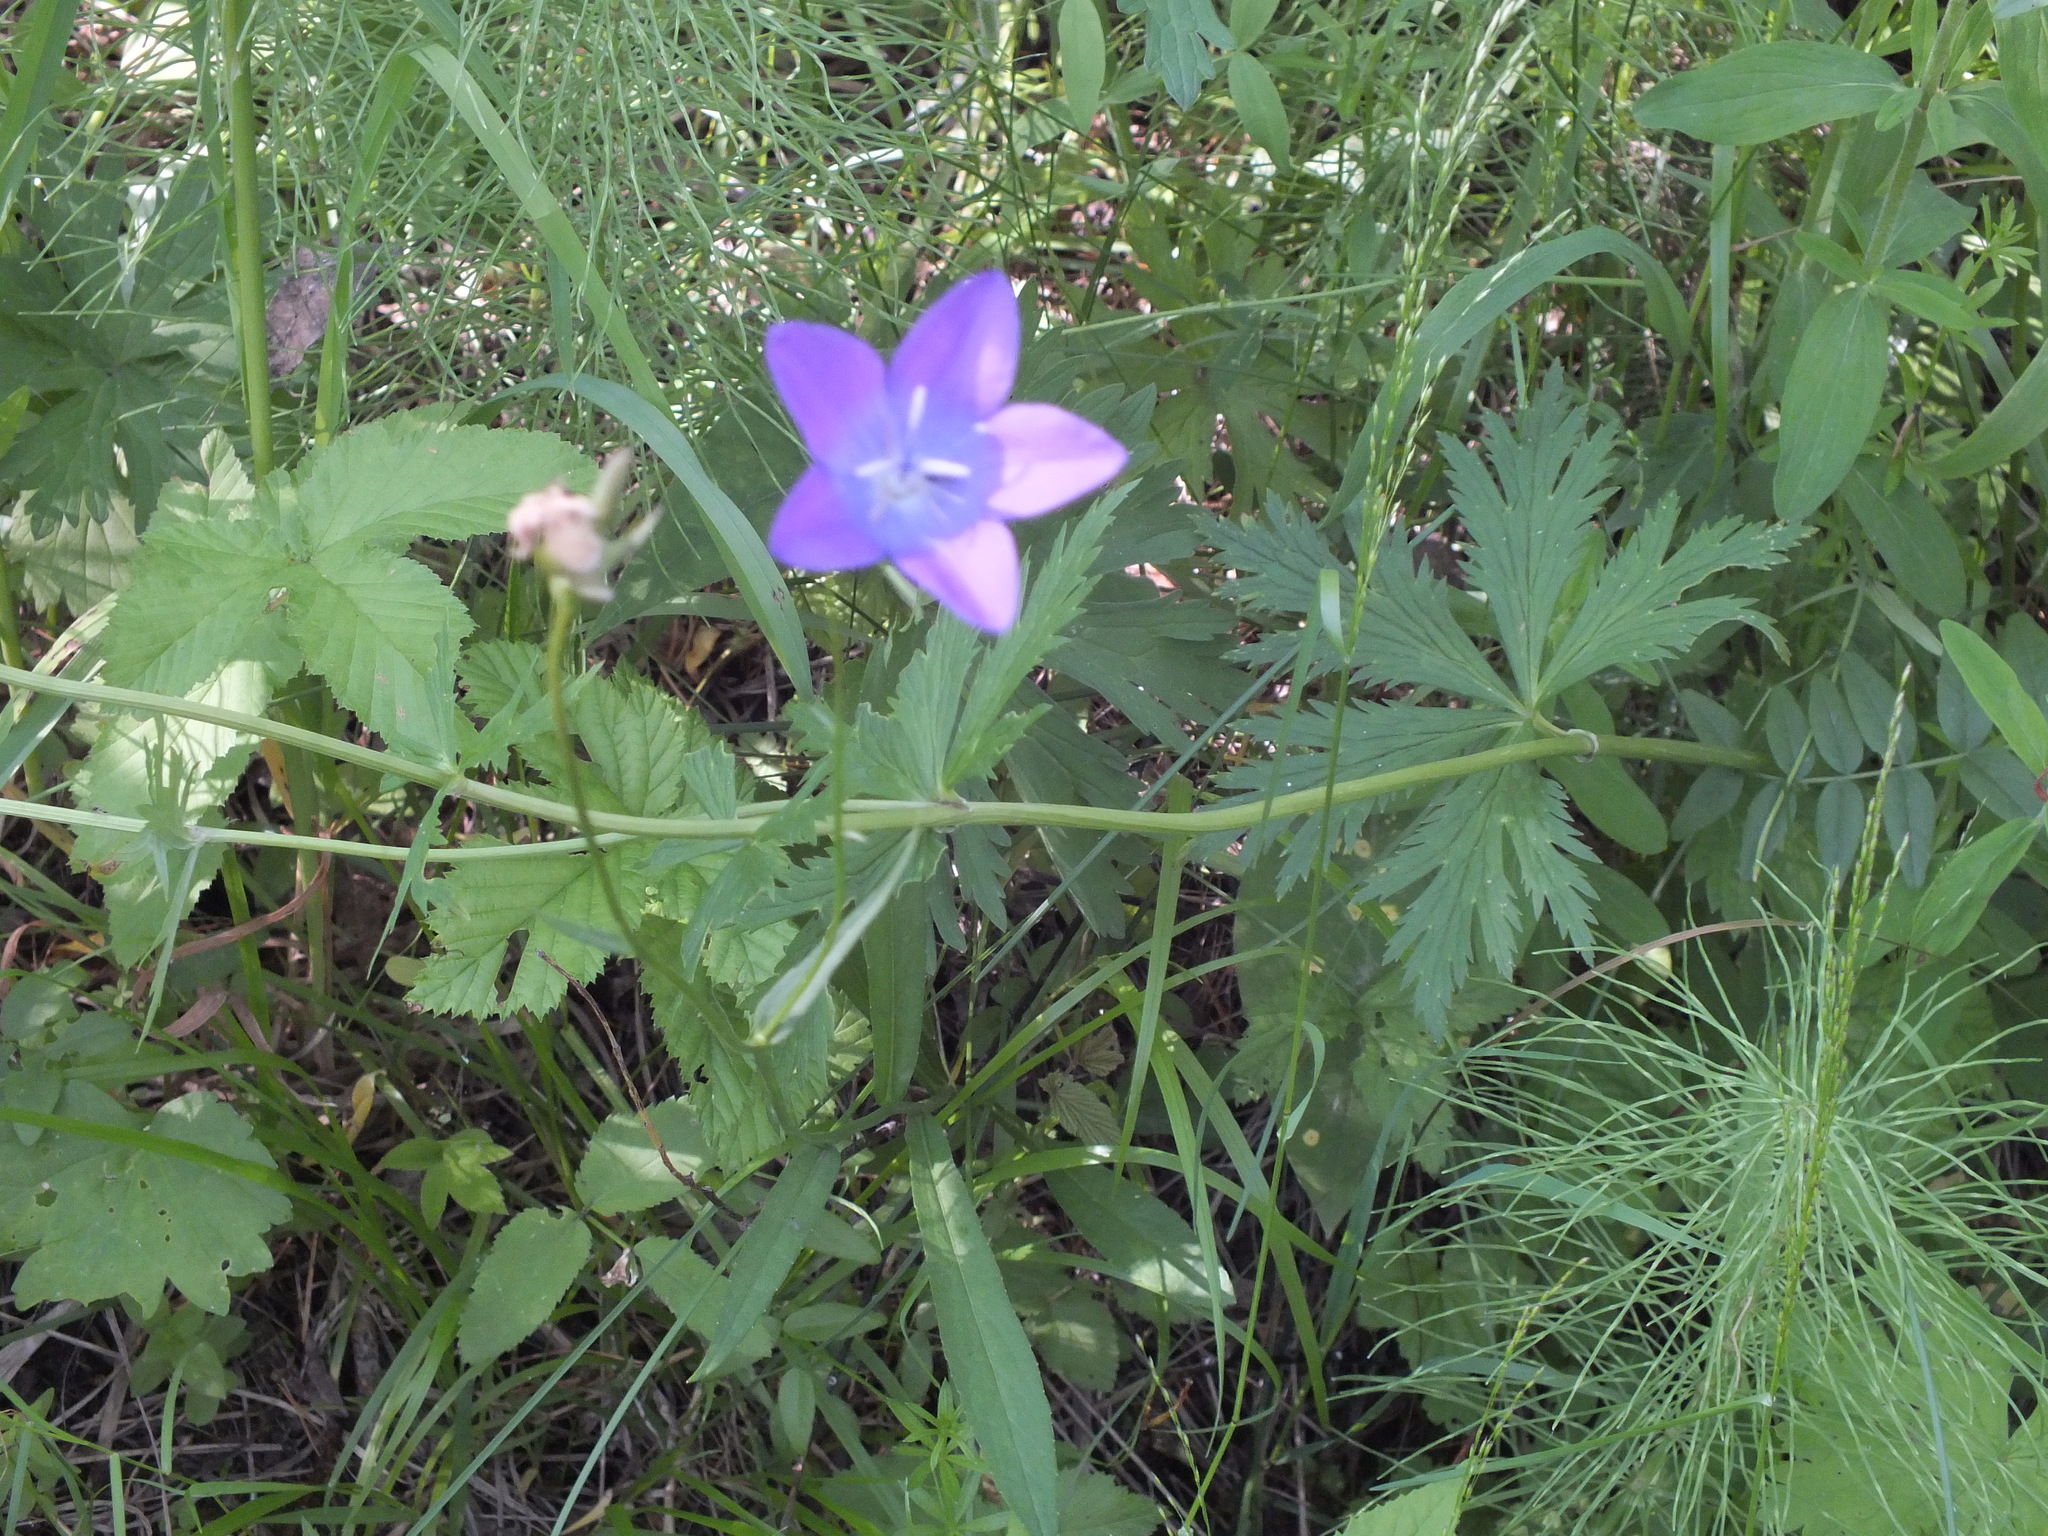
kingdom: Plantae
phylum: Tracheophyta
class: Magnoliopsida
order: Asterales
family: Campanulaceae
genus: Campanula
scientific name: Campanula stevenii
